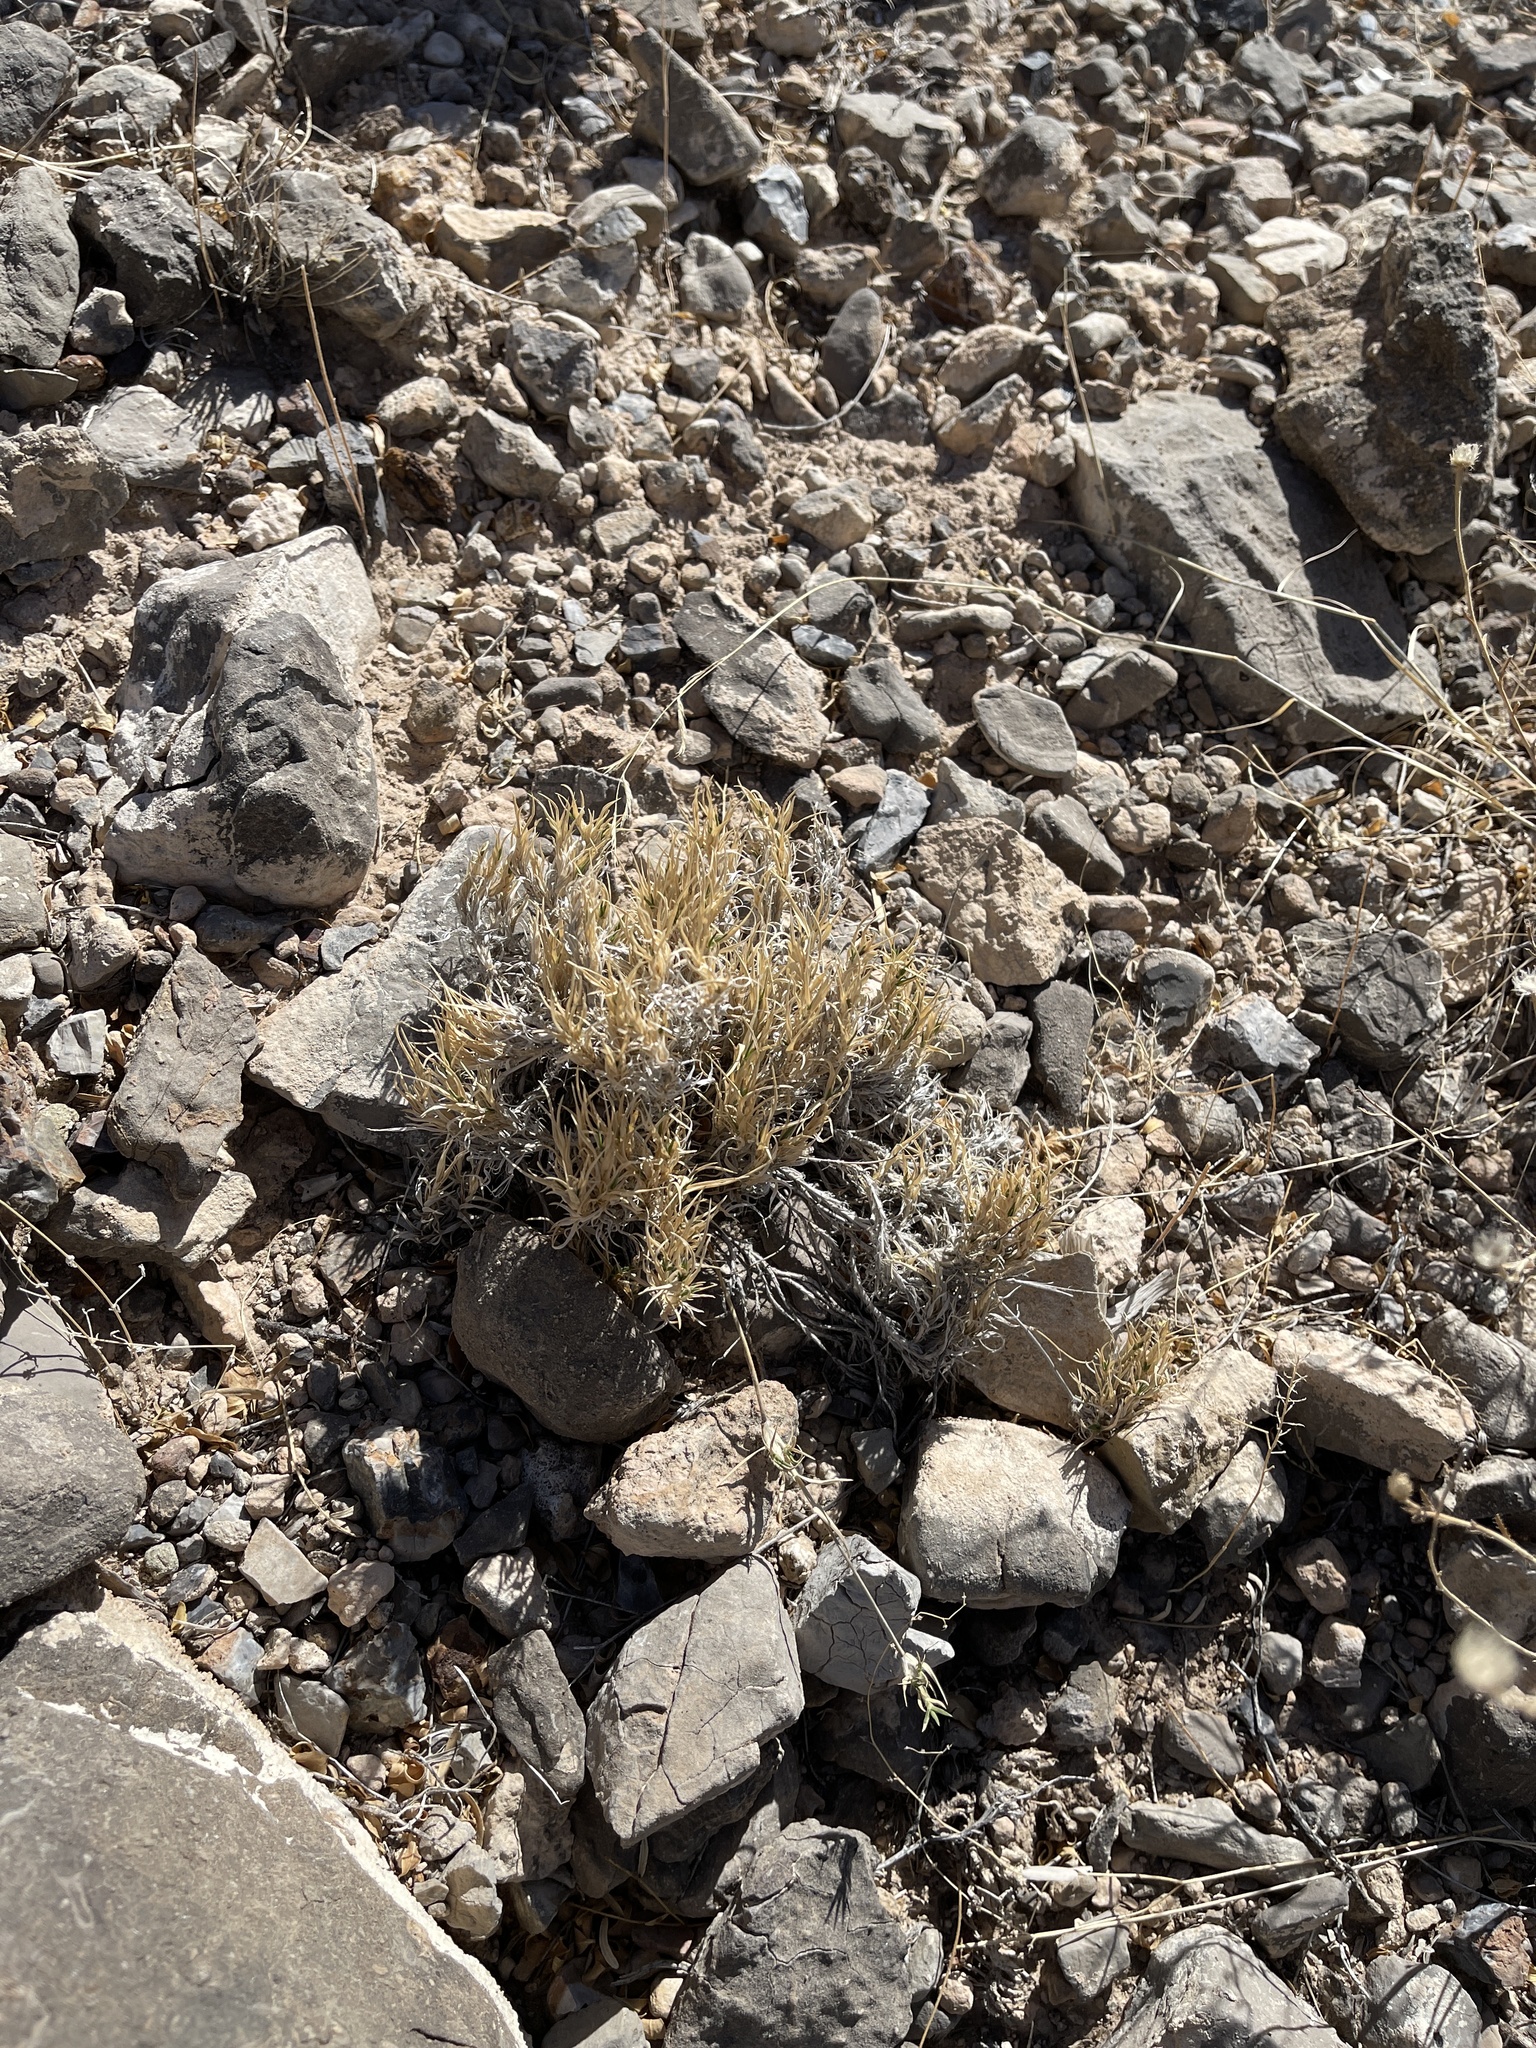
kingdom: Plantae
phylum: Tracheophyta
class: Liliopsida
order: Poales
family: Poaceae
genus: Dasyochloa
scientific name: Dasyochloa pulchella
